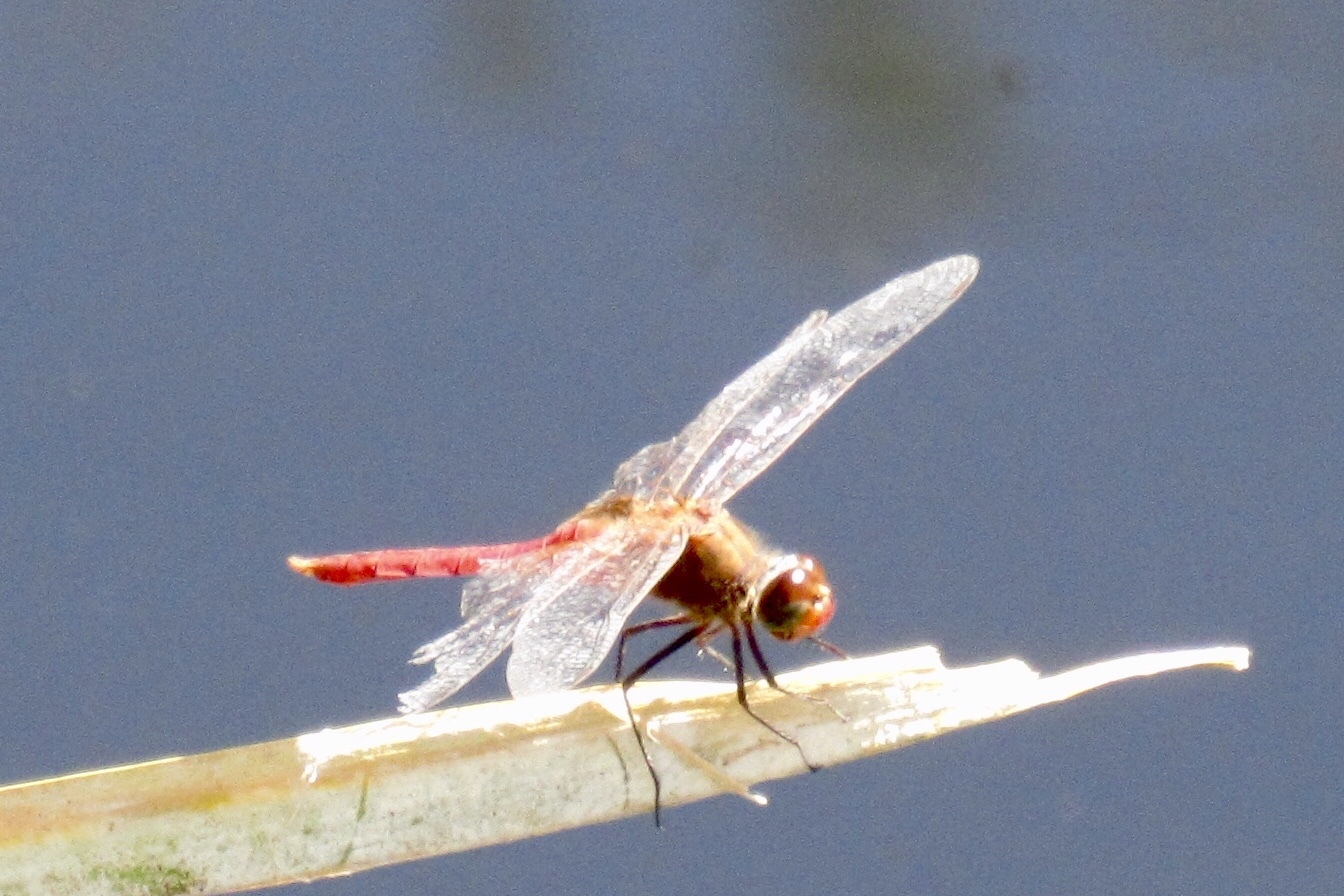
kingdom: Animalia
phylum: Arthropoda
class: Insecta
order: Odonata
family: Libellulidae
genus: Brachymesia
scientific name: Brachymesia furcata
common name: Red-taled pennant
